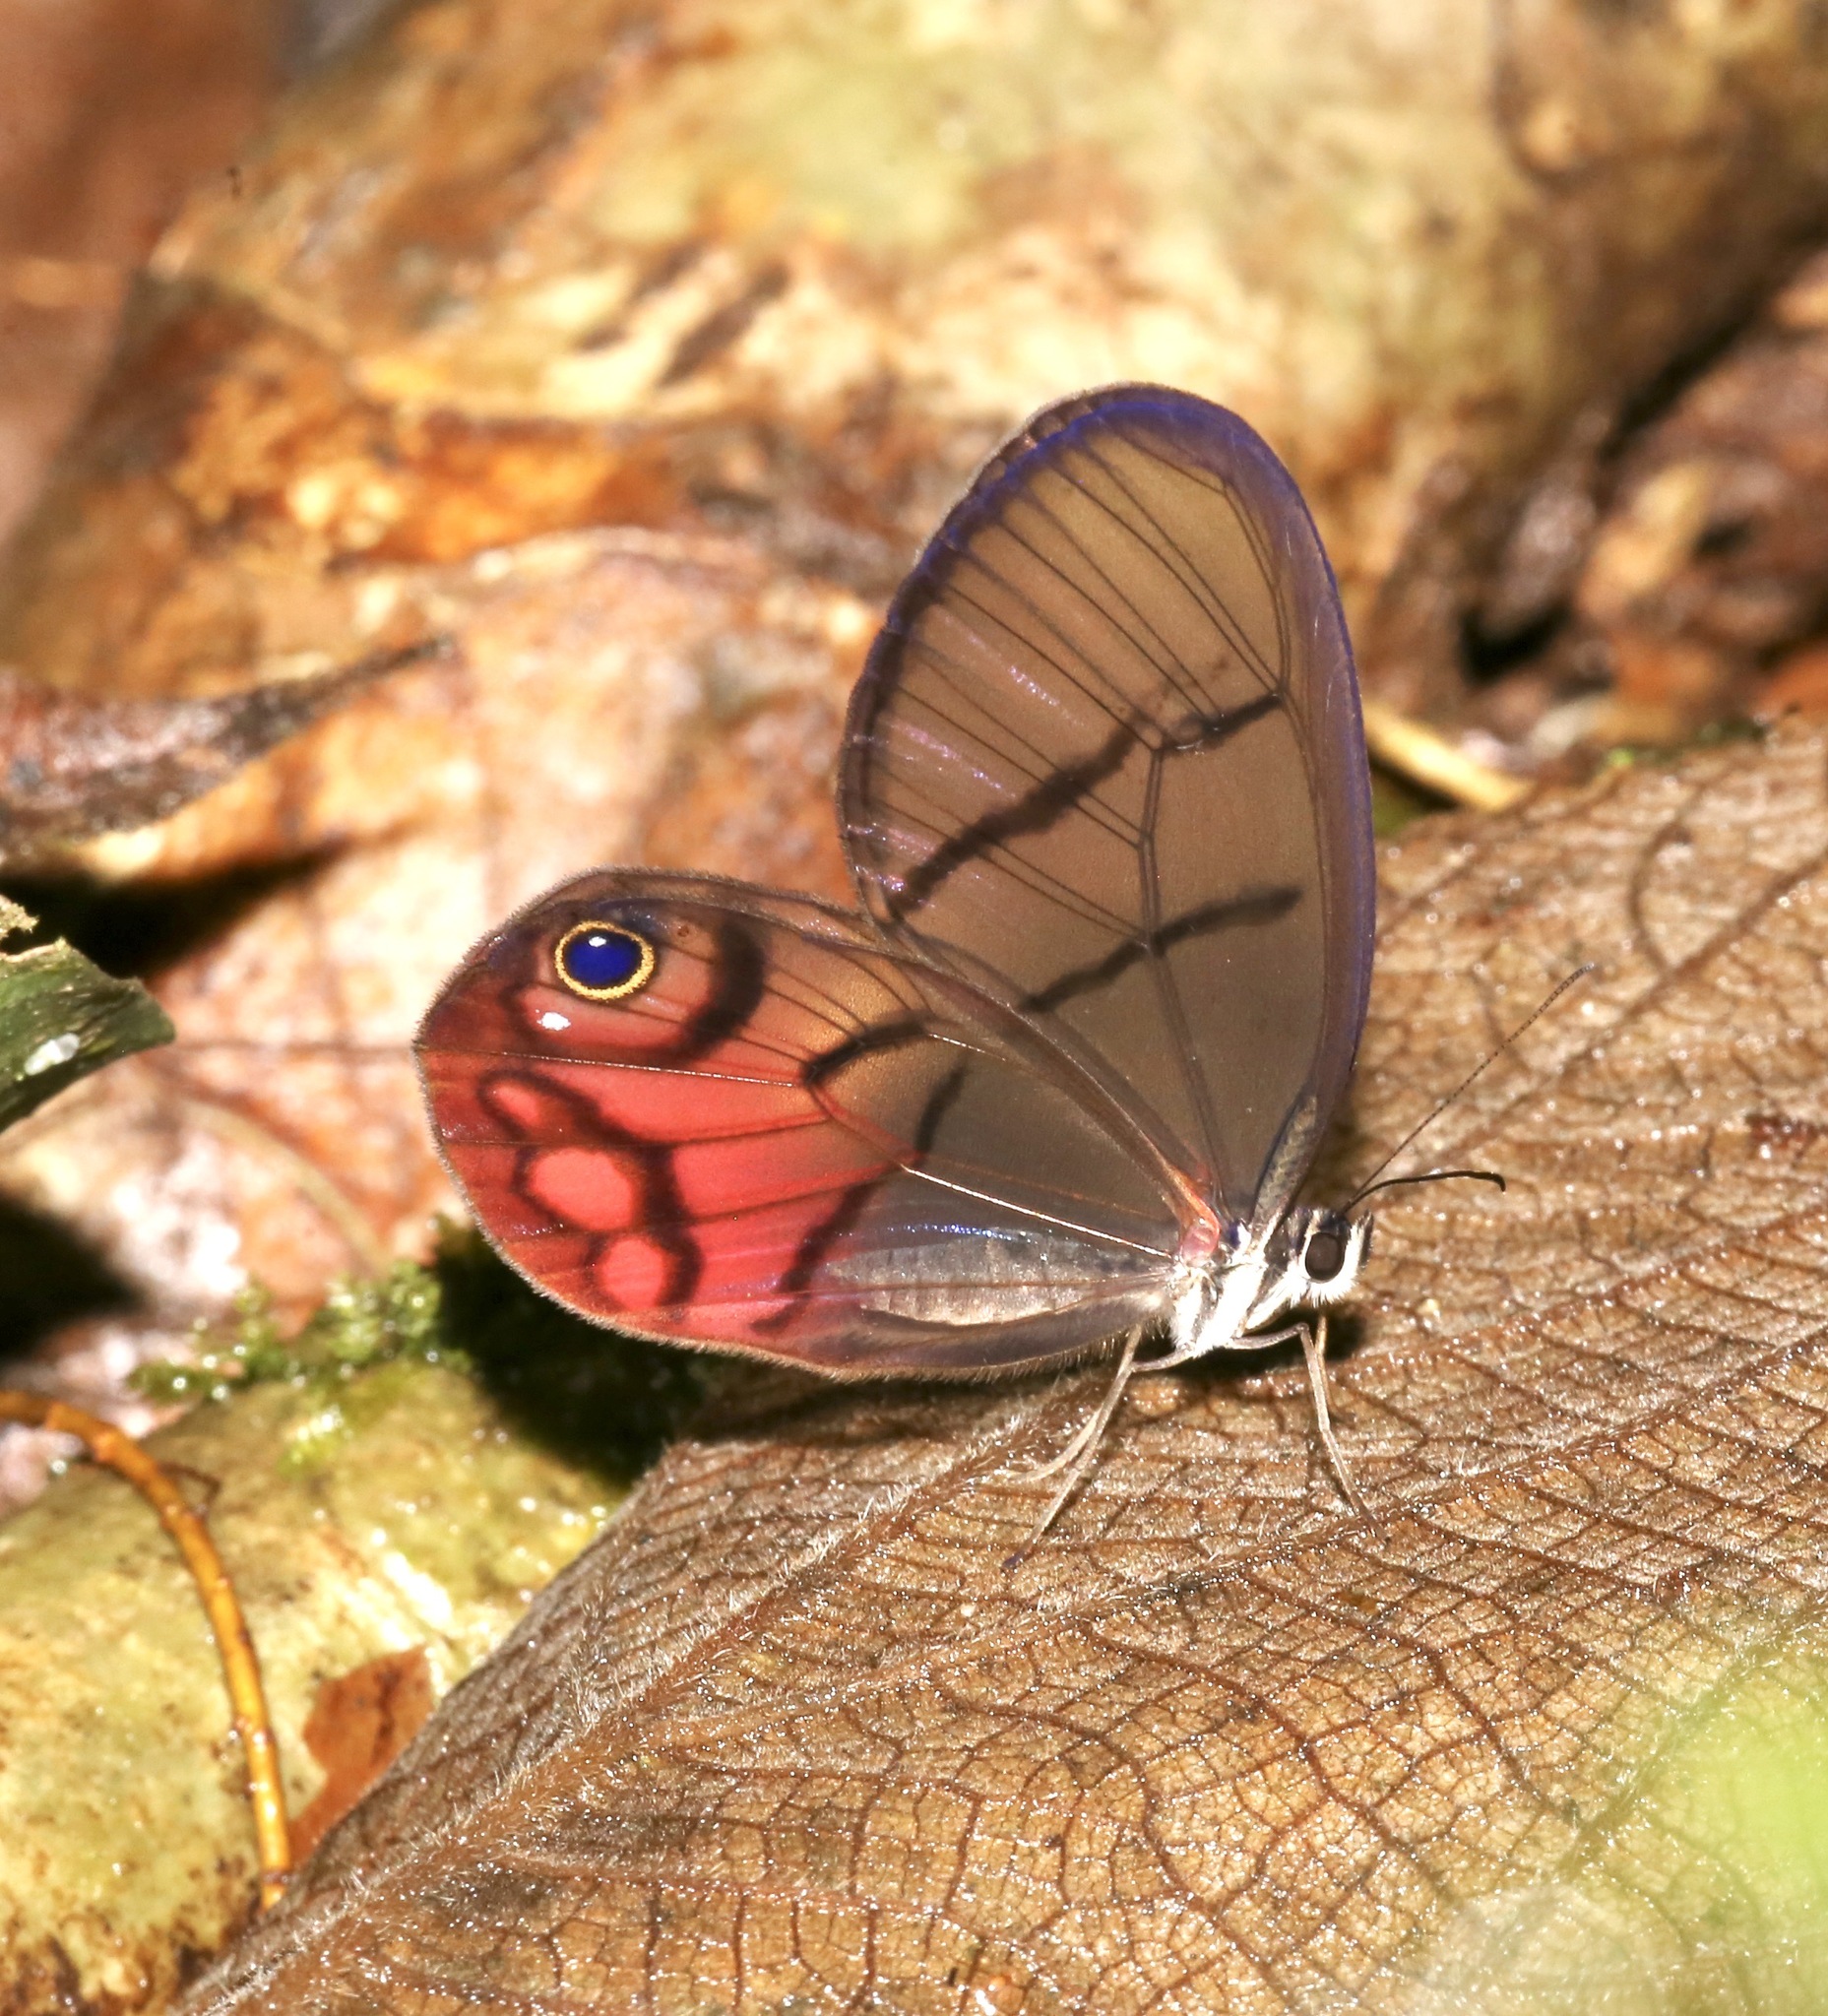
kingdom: Animalia
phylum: Arthropoda
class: Insecta
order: Lepidoptera
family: Nymphalidae
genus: Cithaerias
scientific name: Cithaerias pireta
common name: Rusted clearwing-satyr
